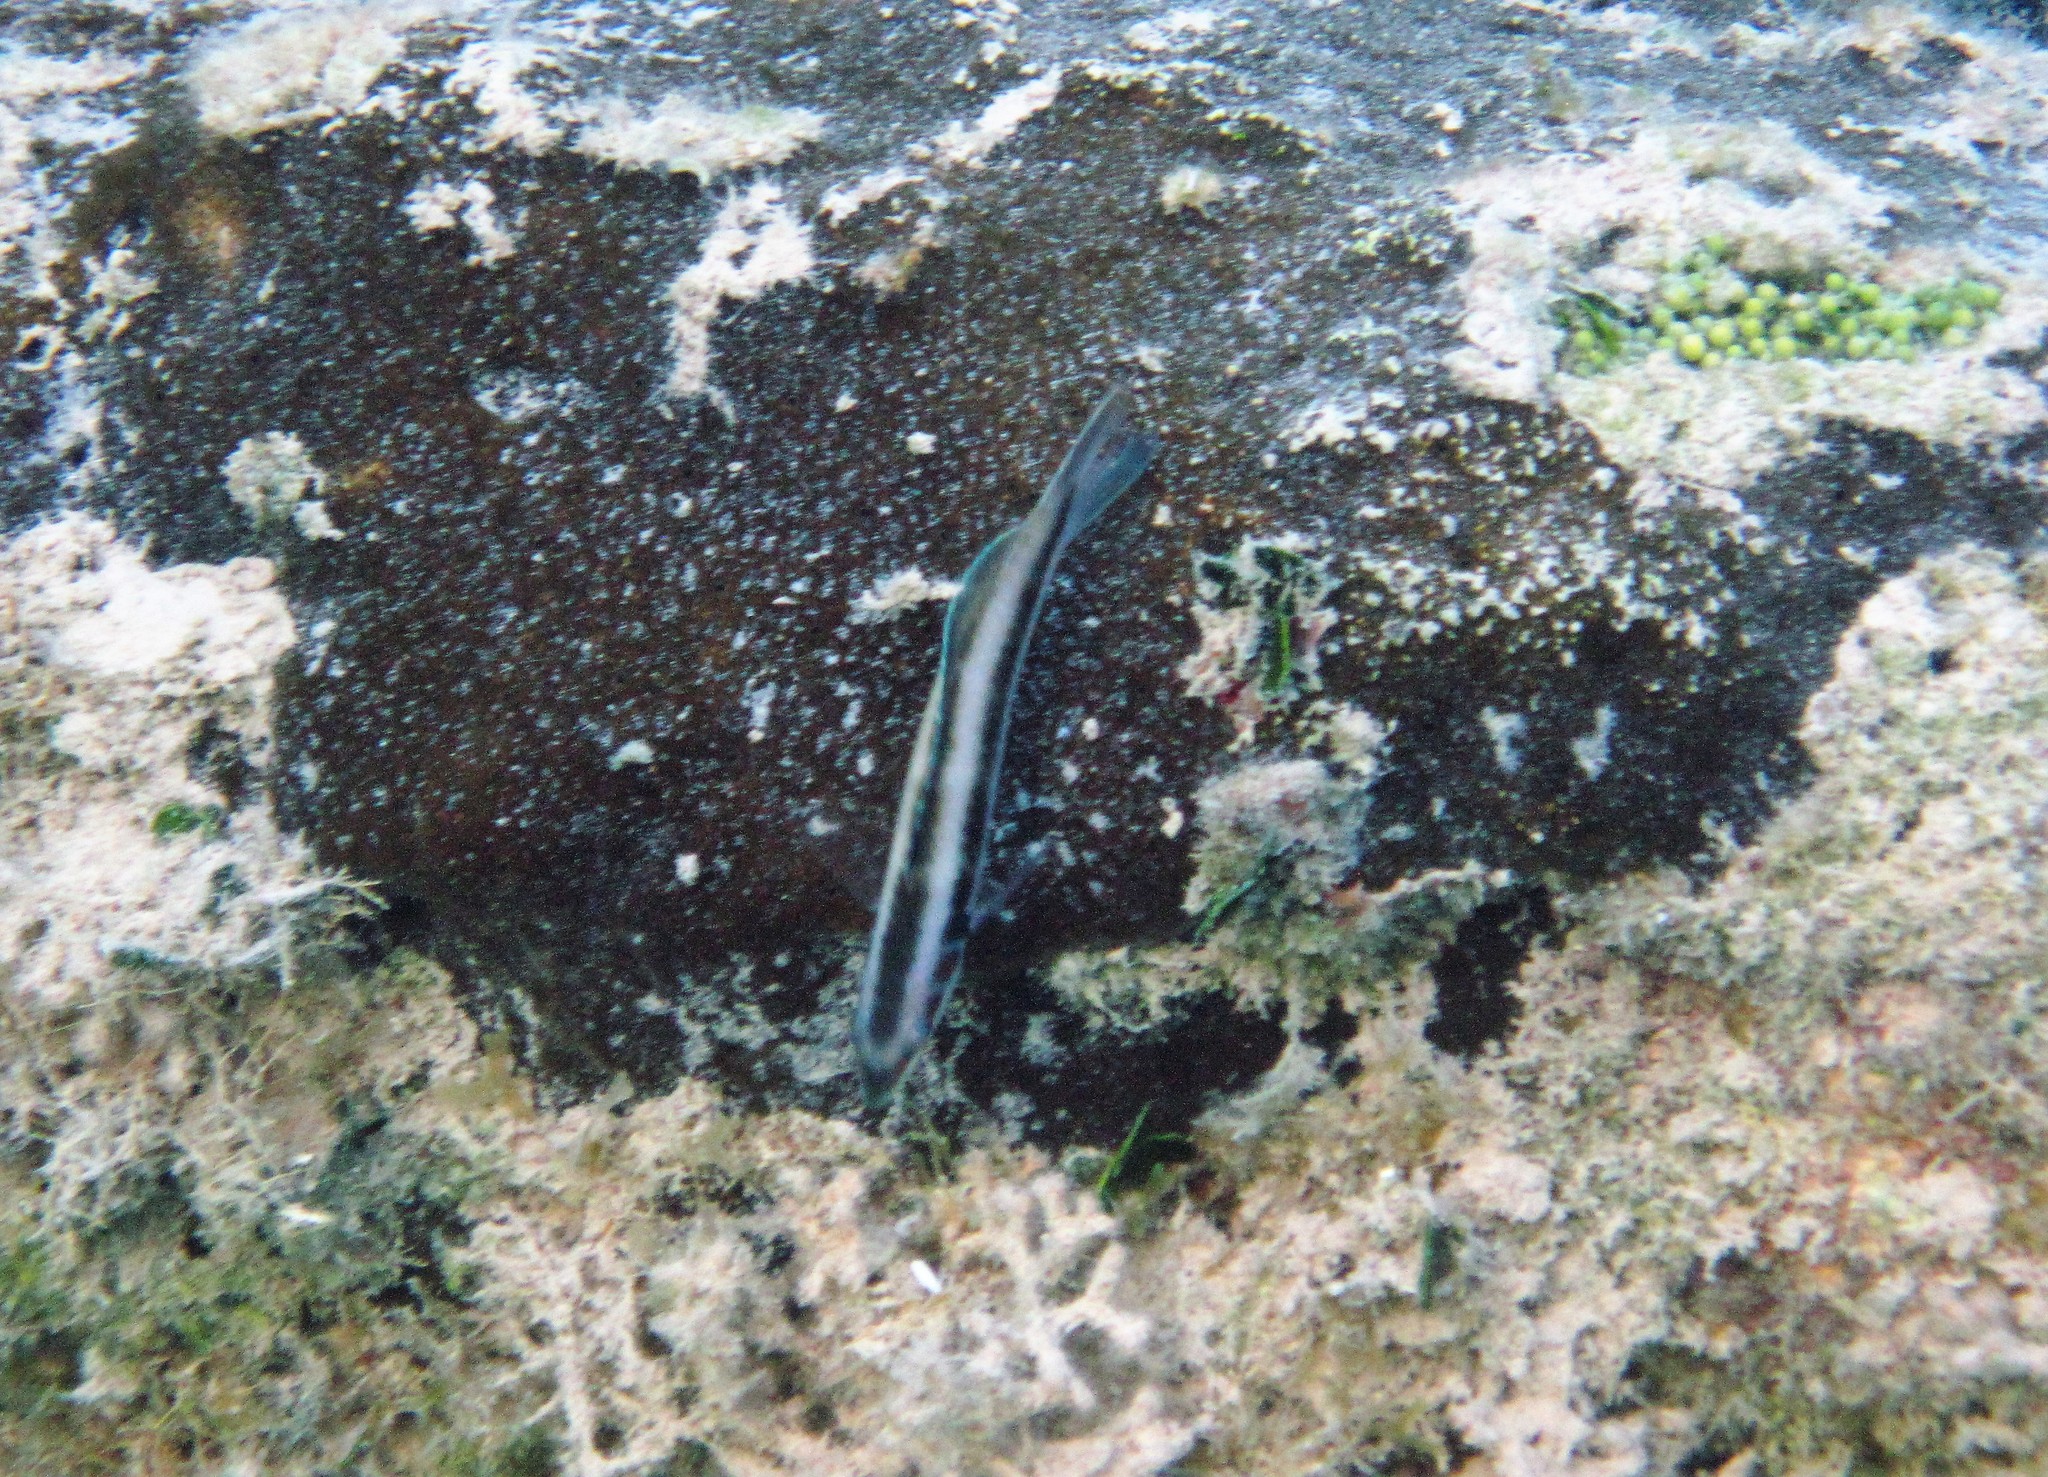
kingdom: Animalia
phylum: Chordata
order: Perciformes
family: Labridae
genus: Thalassoma
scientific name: Thalassoma bifasciatum
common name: Bluehead wrasse
